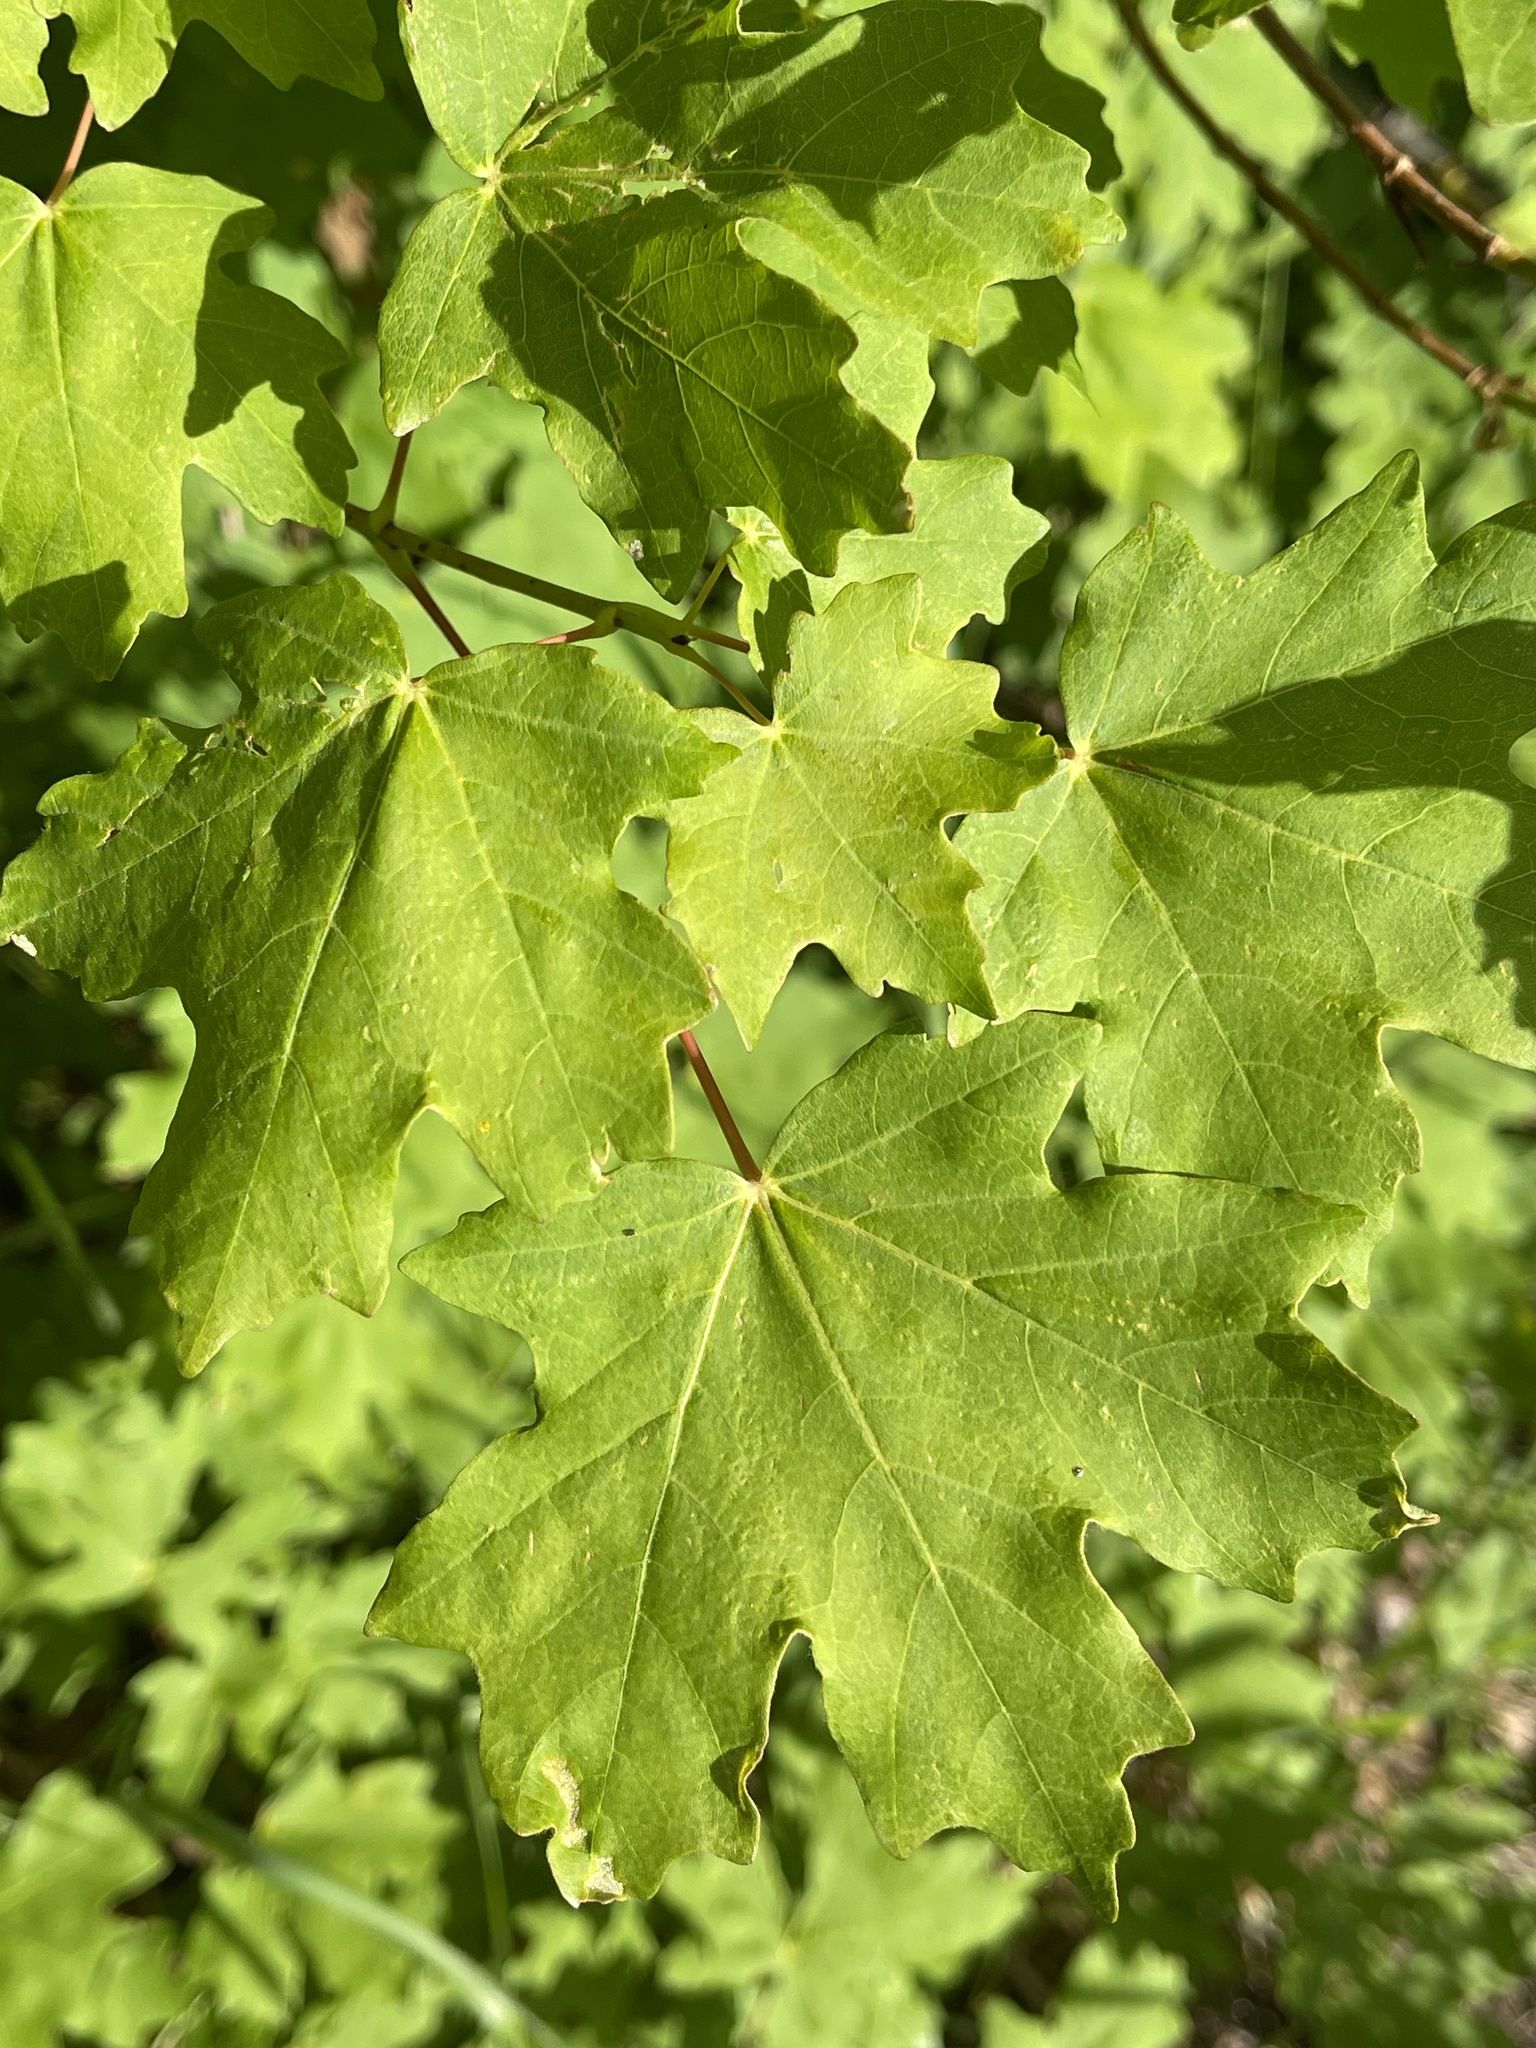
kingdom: Plantae
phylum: Tracheophyta
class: Magnoliopsida
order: Sapindales
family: Sapindaceae
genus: Acer
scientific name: Acer grandidentatum
